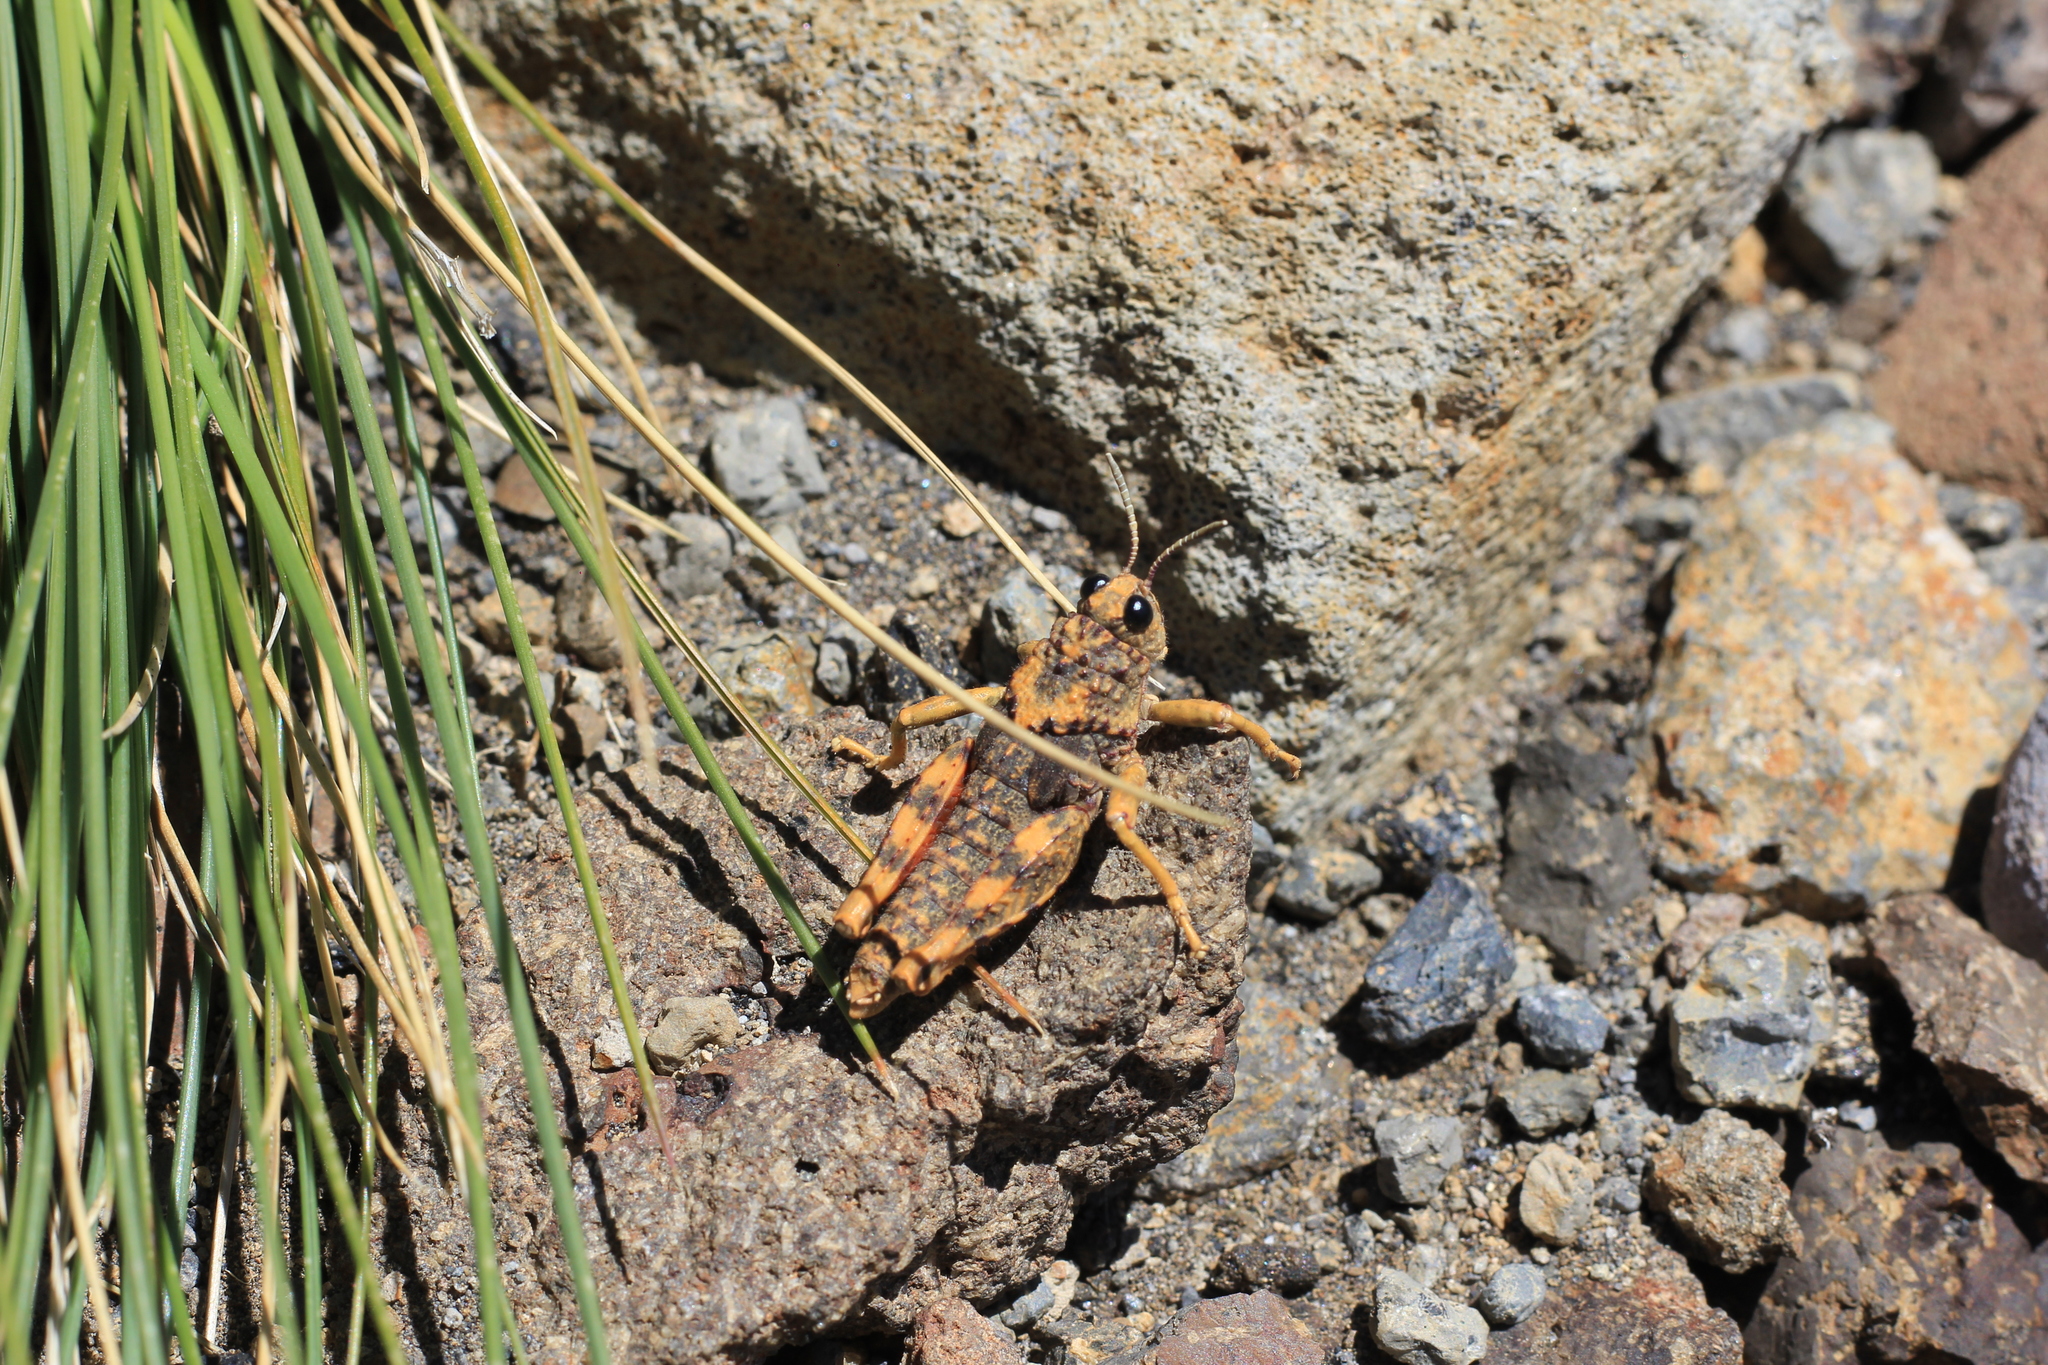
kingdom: Animalia
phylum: Arthropoda
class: Insecta
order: Orthoptera
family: Ommexechidae
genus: Aucacris
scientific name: Aucacris bullocki
